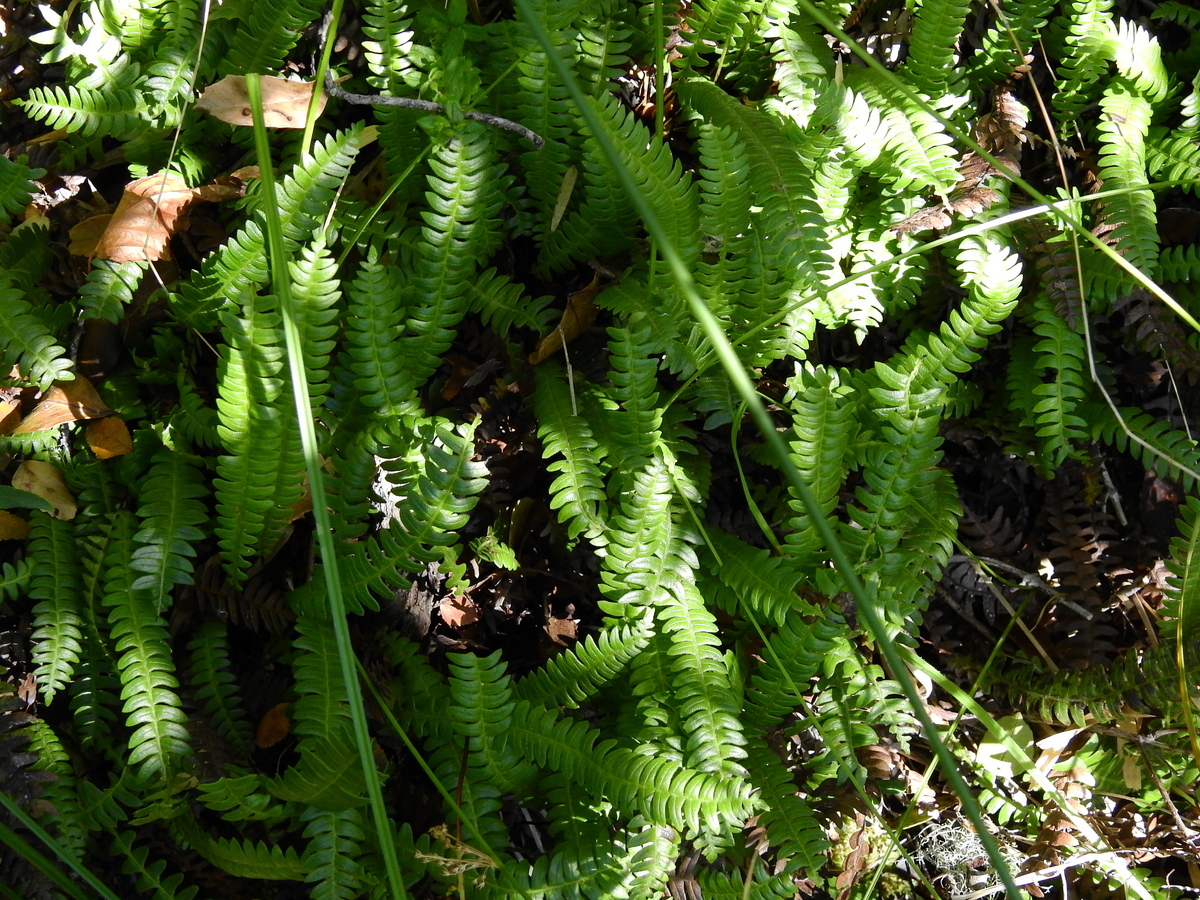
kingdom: Plantae
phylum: Tracheophyta
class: Polypodiopsida
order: Polypodiales
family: Blechnaceae
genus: Austroblechnum
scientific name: Austroblechnum penna-marina
